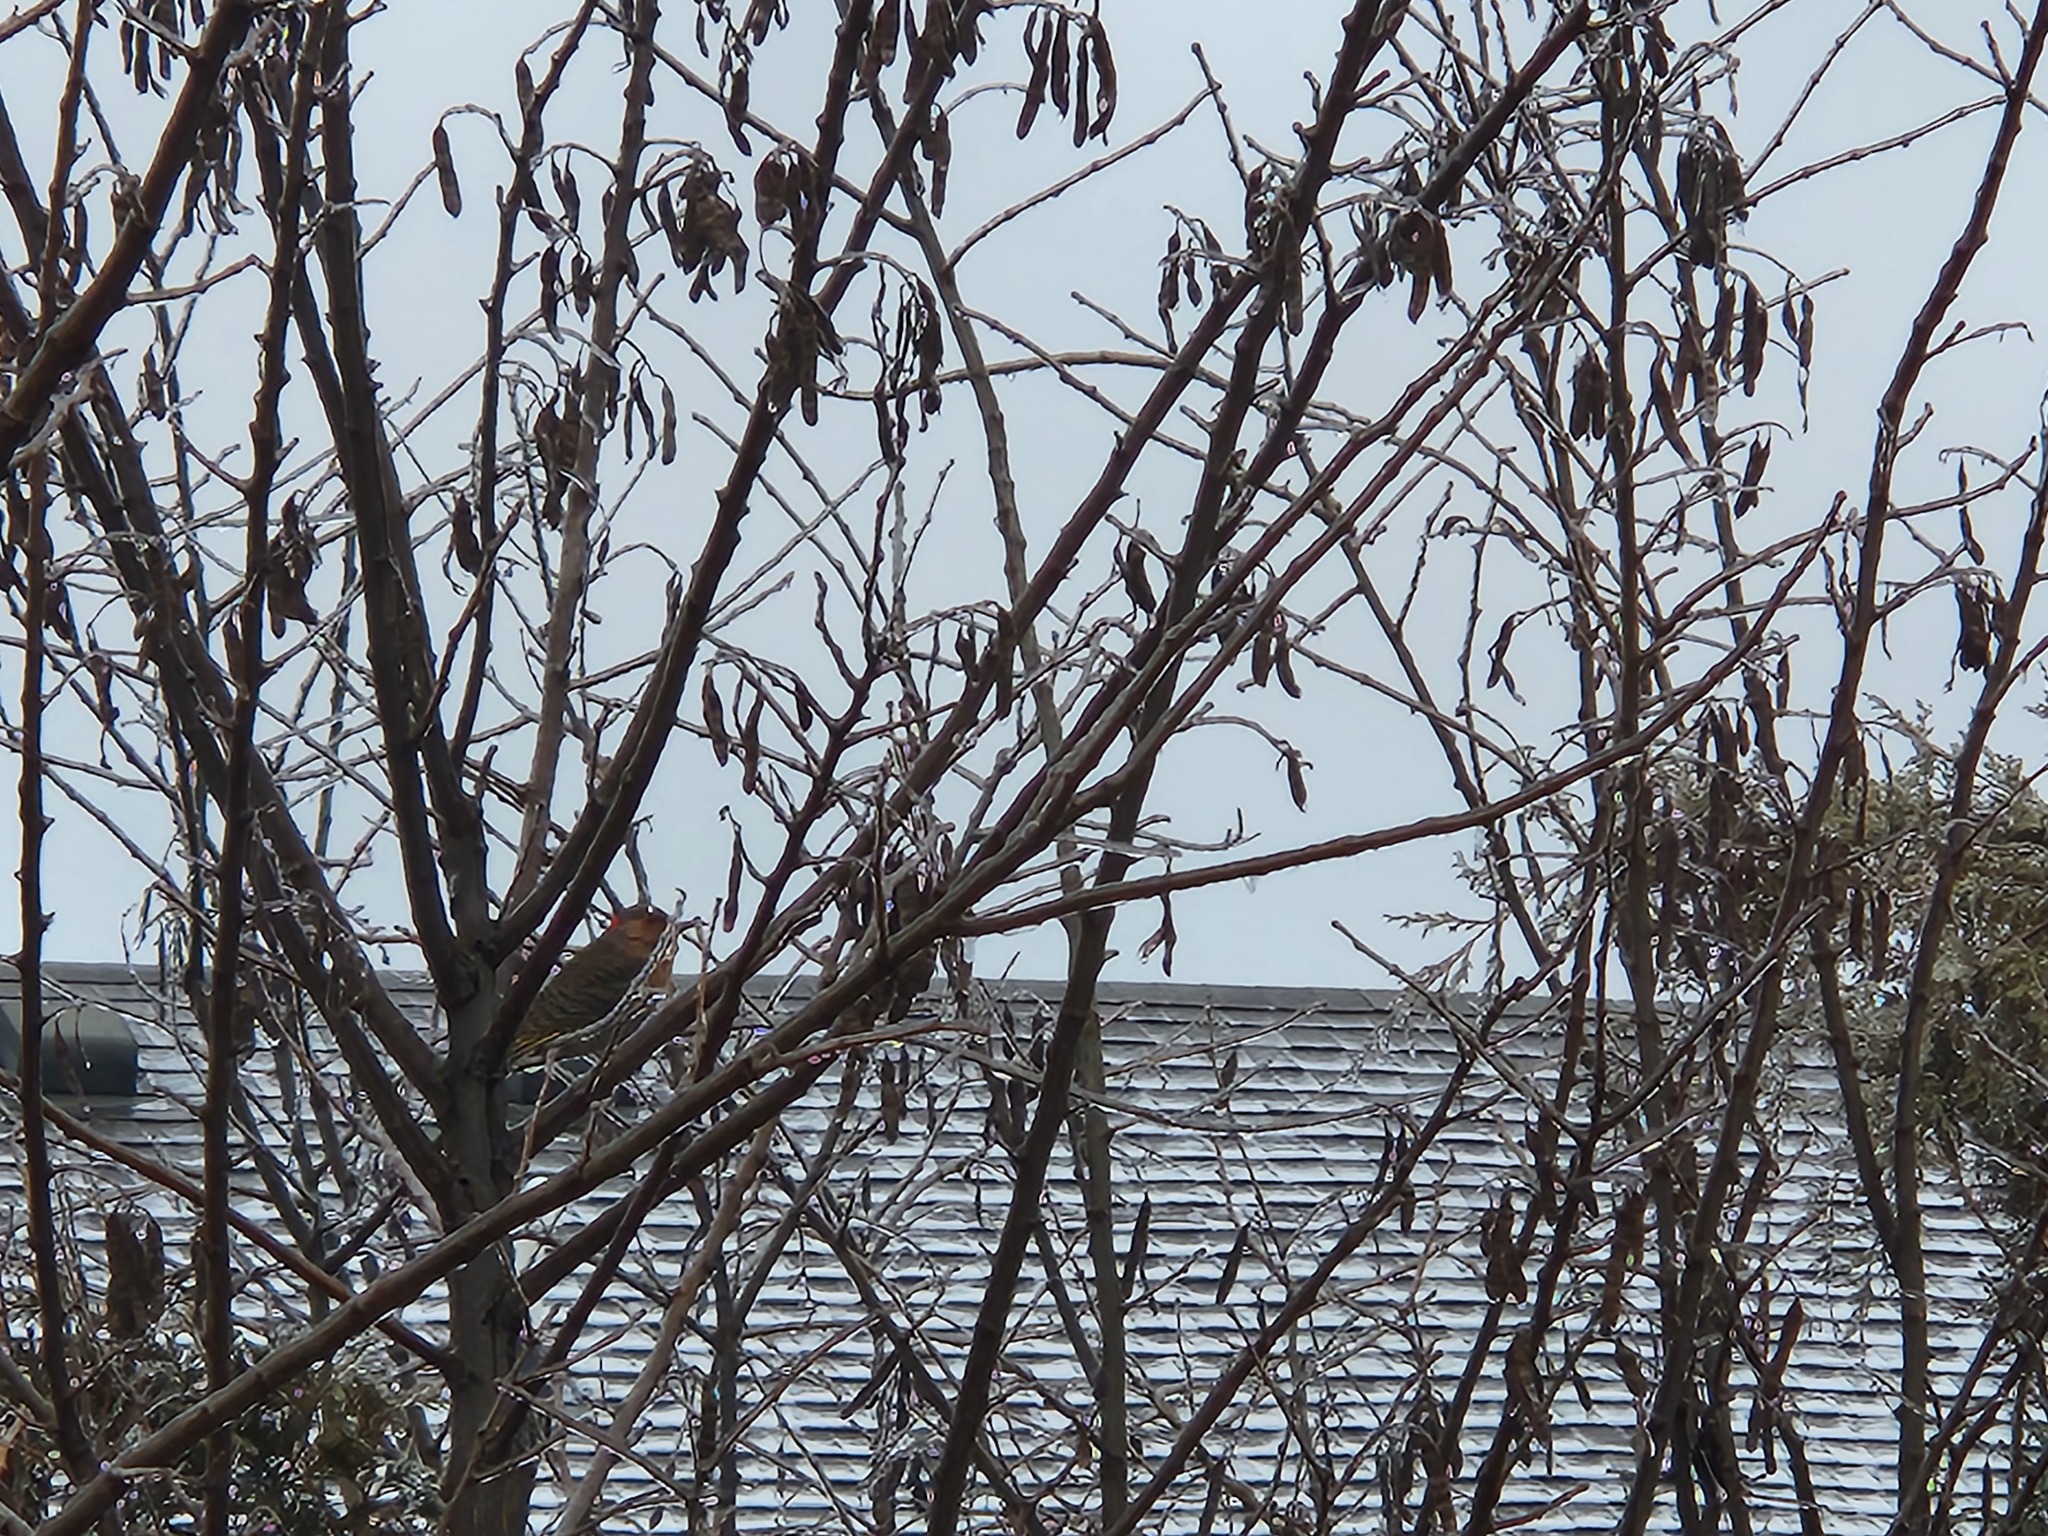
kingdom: Animalia
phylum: Chordata
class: Aves
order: Piciformes
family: Picidae
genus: Colaptes
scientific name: Colaptes auratus
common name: Northern flicker
